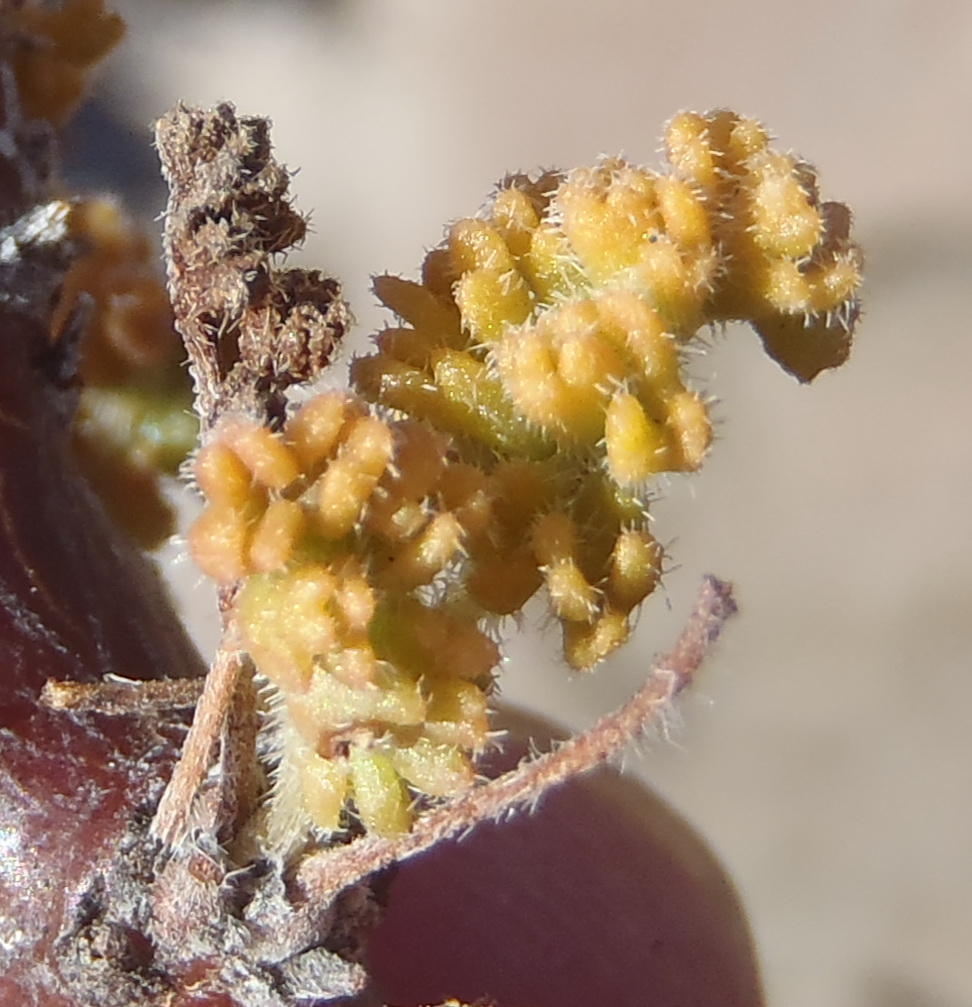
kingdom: Plantae
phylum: Tracheophyta
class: Magnoliopsida
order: Geraniales
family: Geraniaceae
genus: Pelargonium
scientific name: Pelargonium alternans
